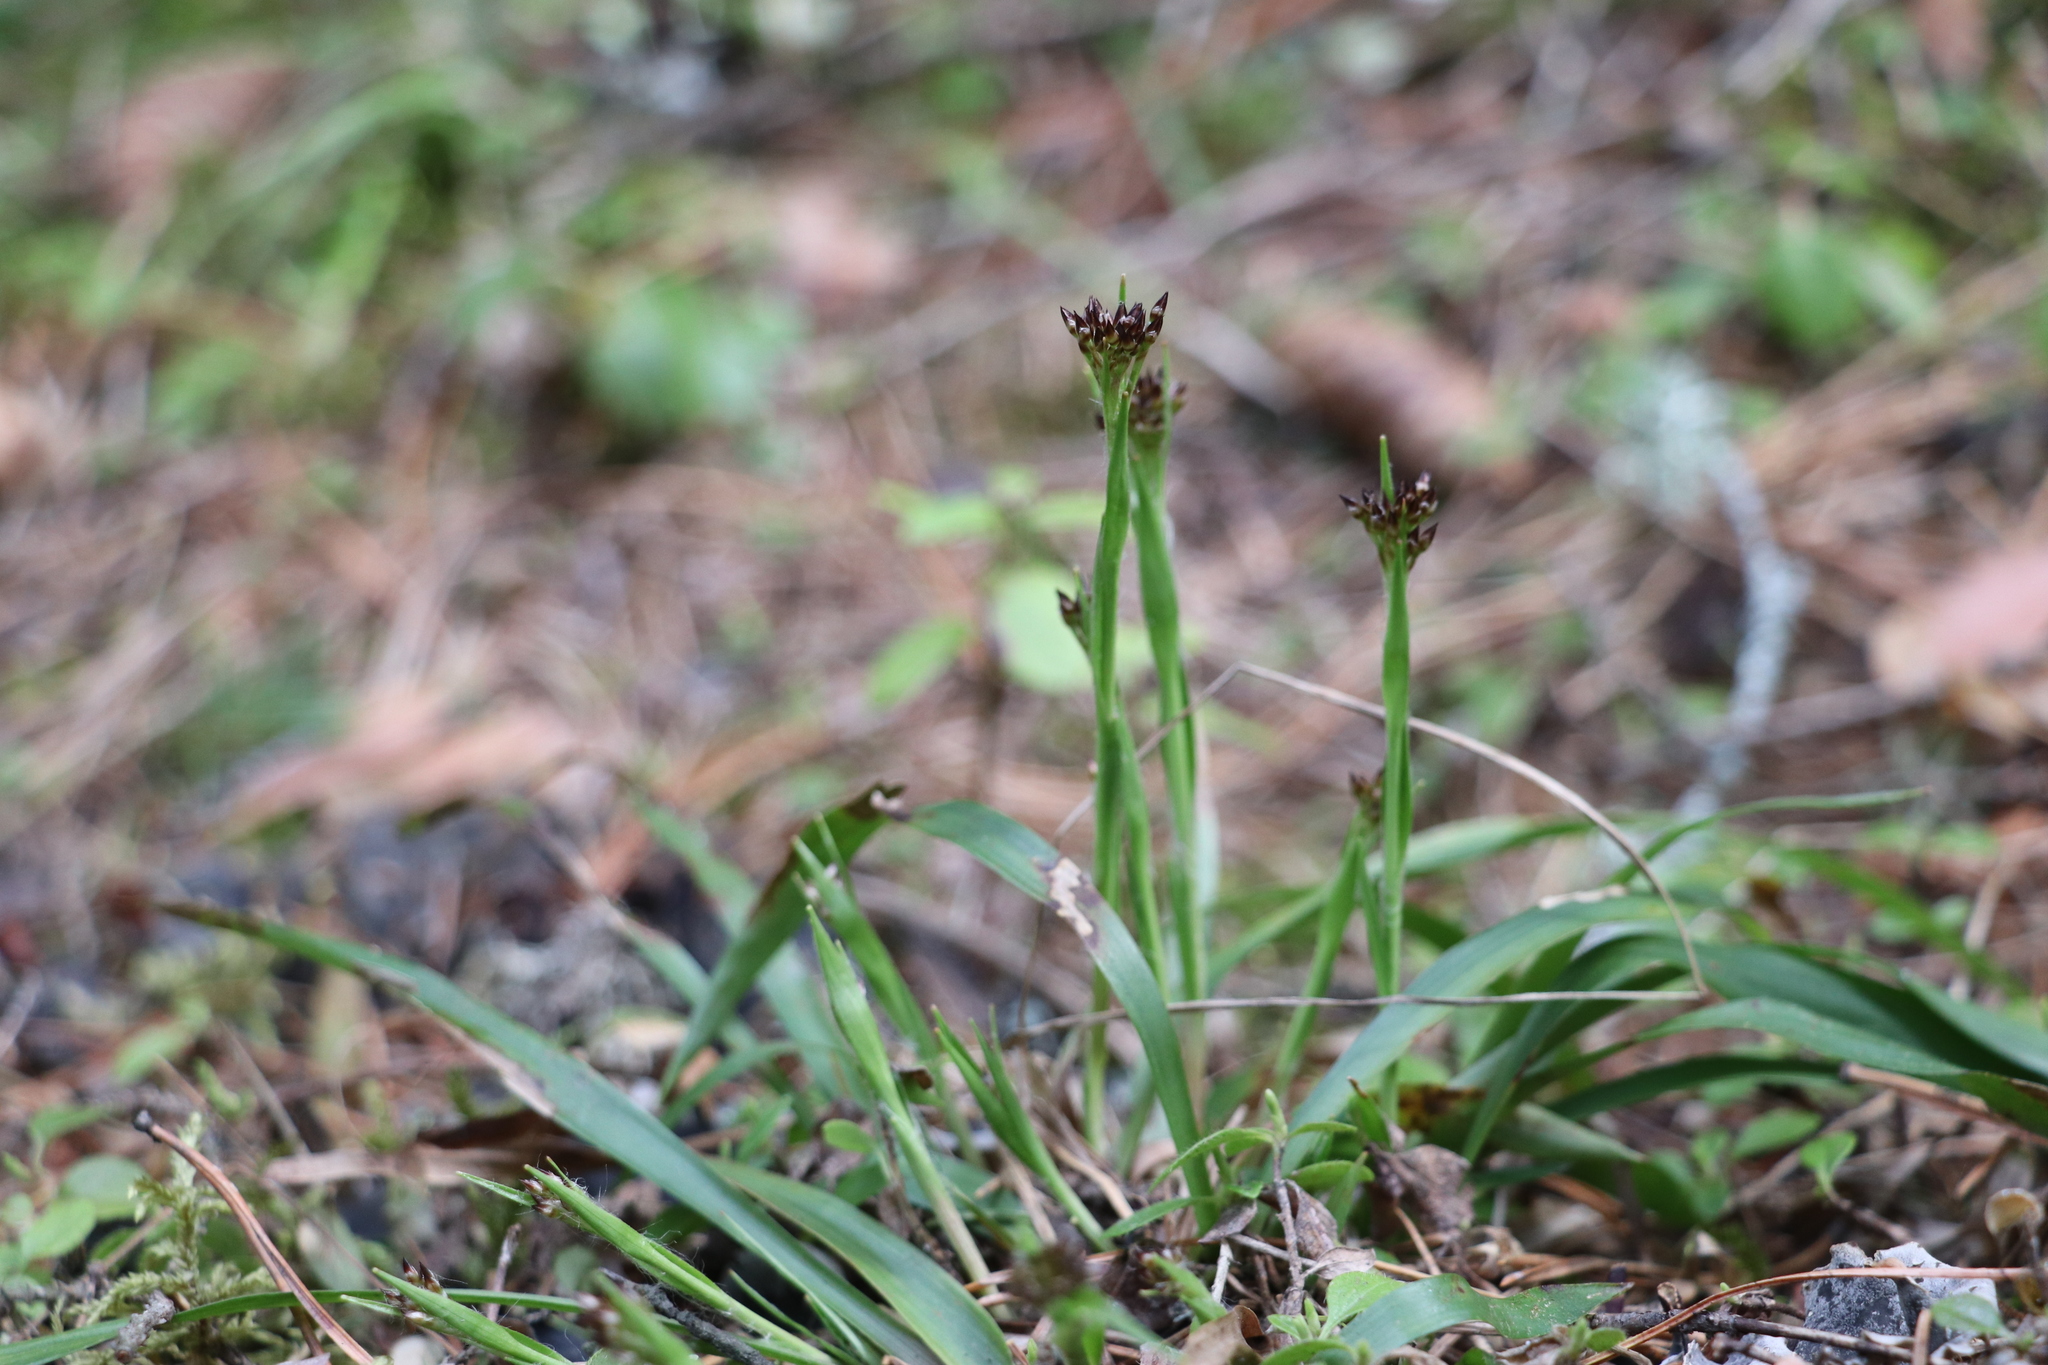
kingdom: Plantae
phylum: Tracheophyta
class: Liliopsida
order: Poales
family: Juncaceae
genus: Luzula
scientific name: Luzula pilosa
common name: Hairy wood-rush
